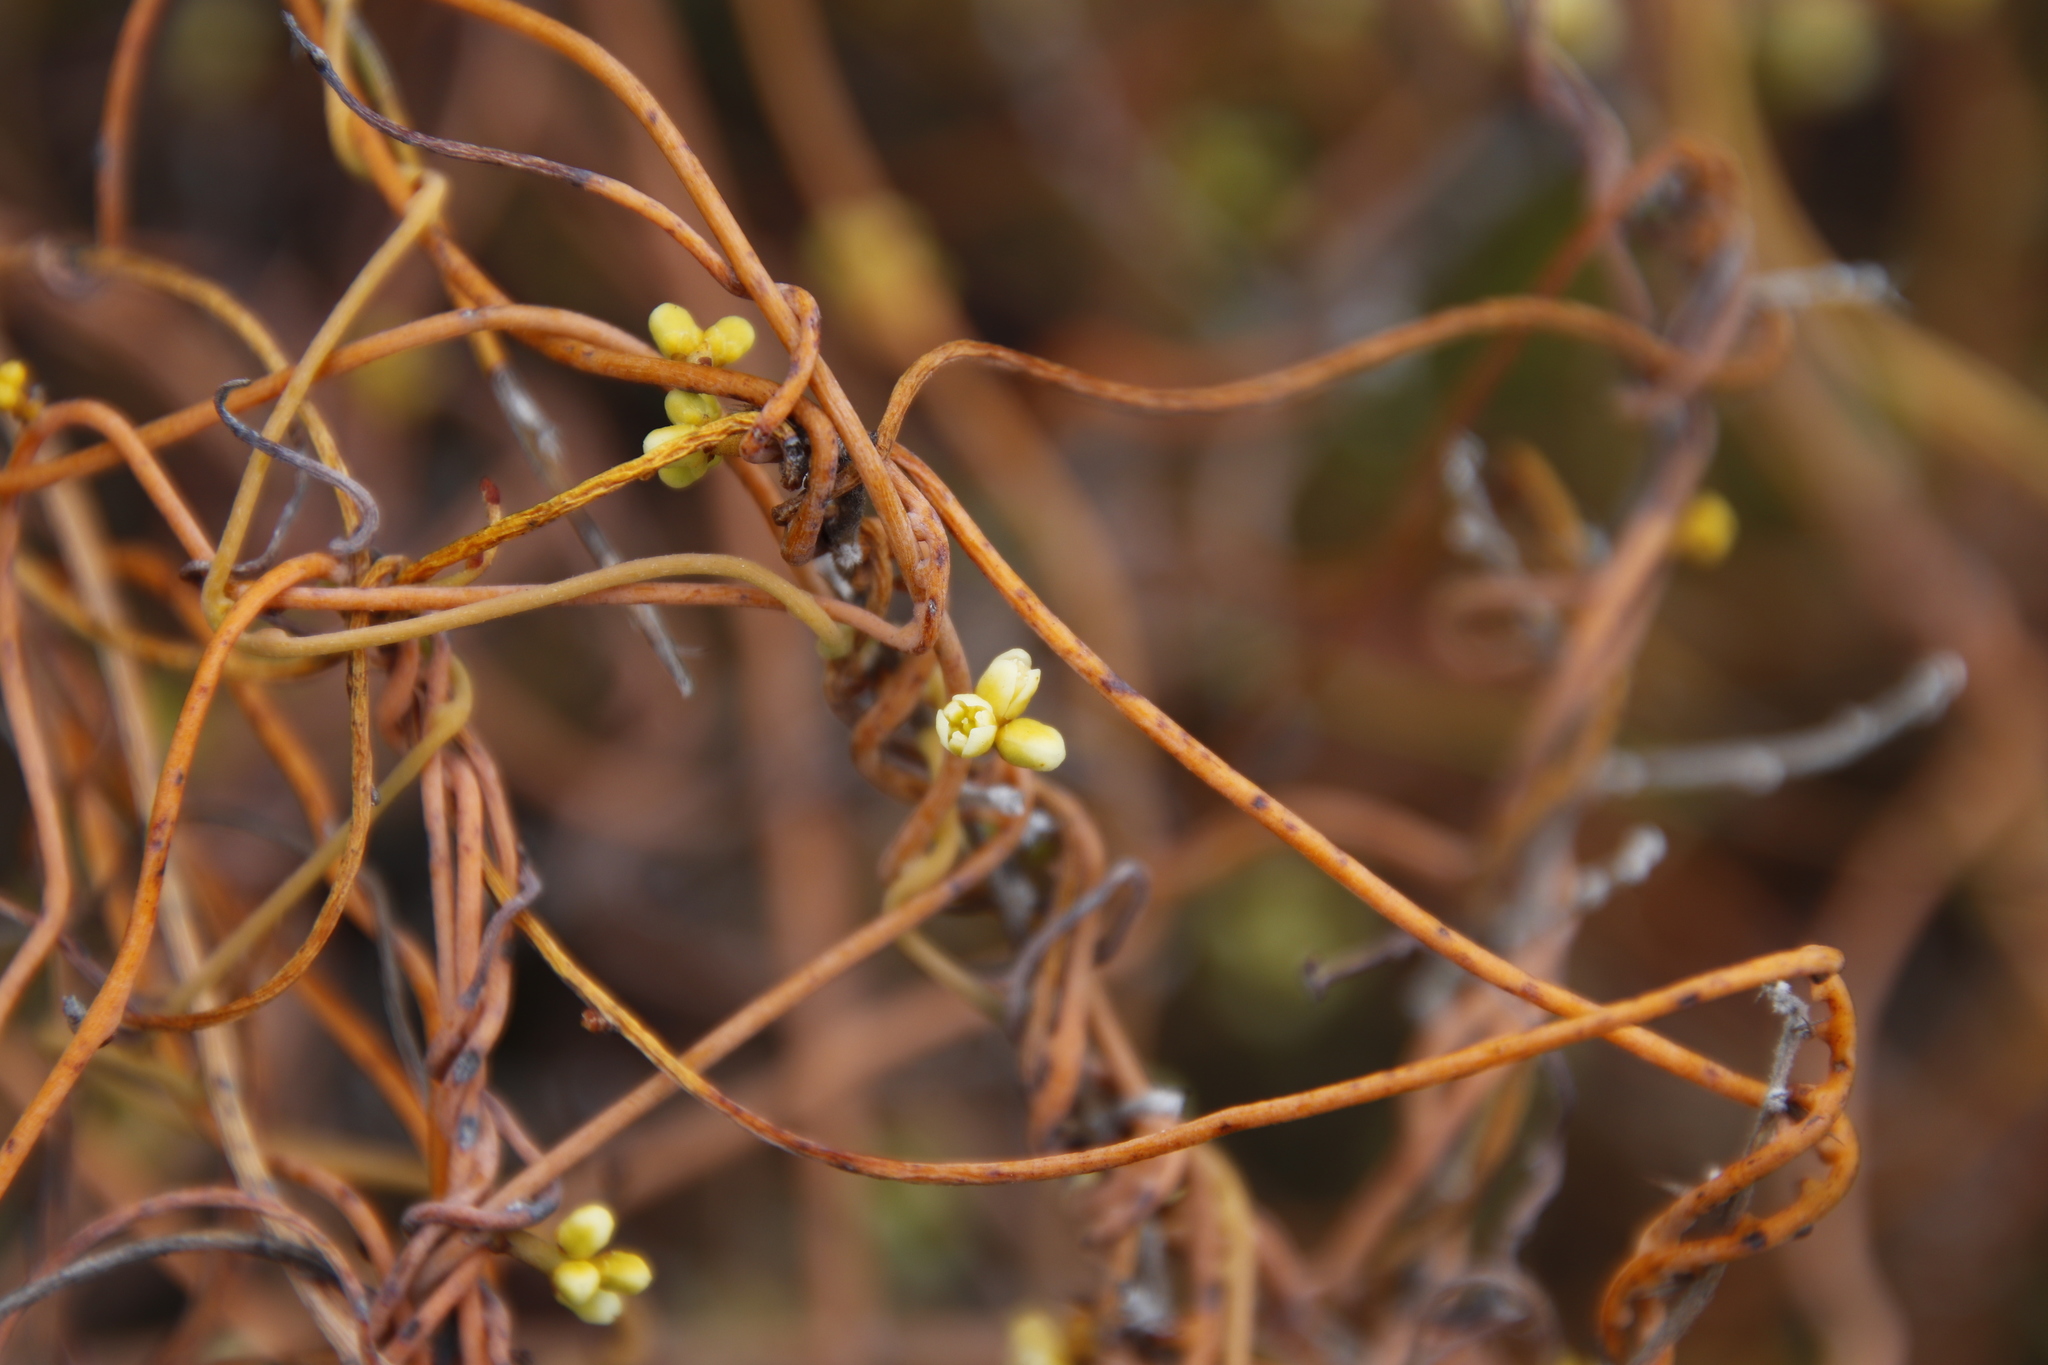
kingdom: Plantae
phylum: Tracheophyta
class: Magnoliopsida
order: Laurales
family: Lauraceae
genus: Cassytha
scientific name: Cassytha ciliolata
